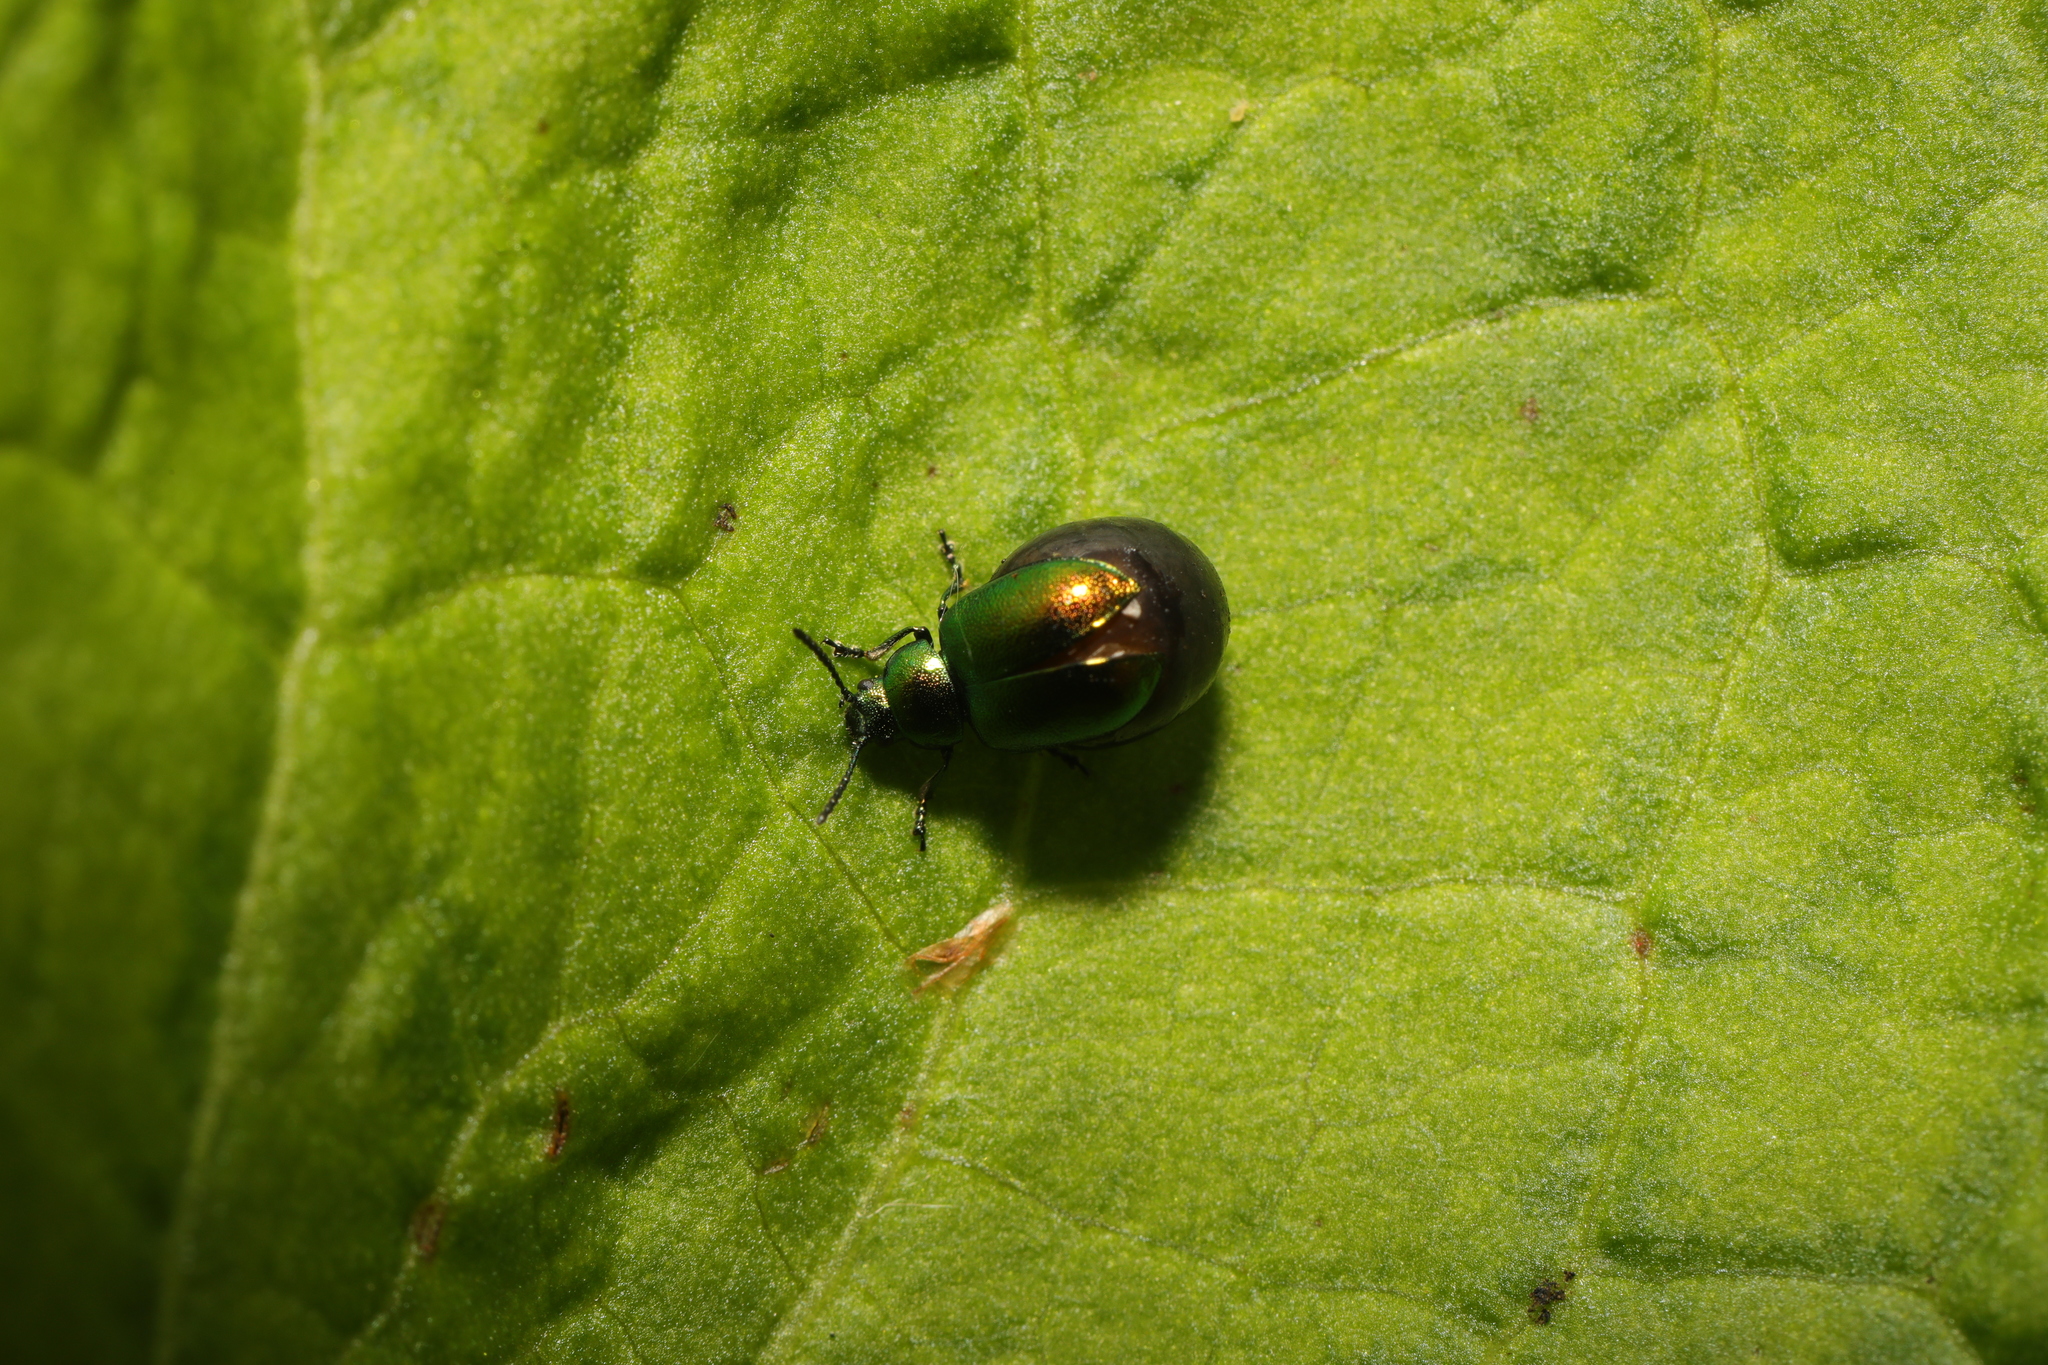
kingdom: Animalia
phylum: Arthropoda
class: Insecta
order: Coleoptera
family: Chrysomelidae
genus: Gastrophysa
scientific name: Gastrophysa viridula
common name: Green dock beetle
